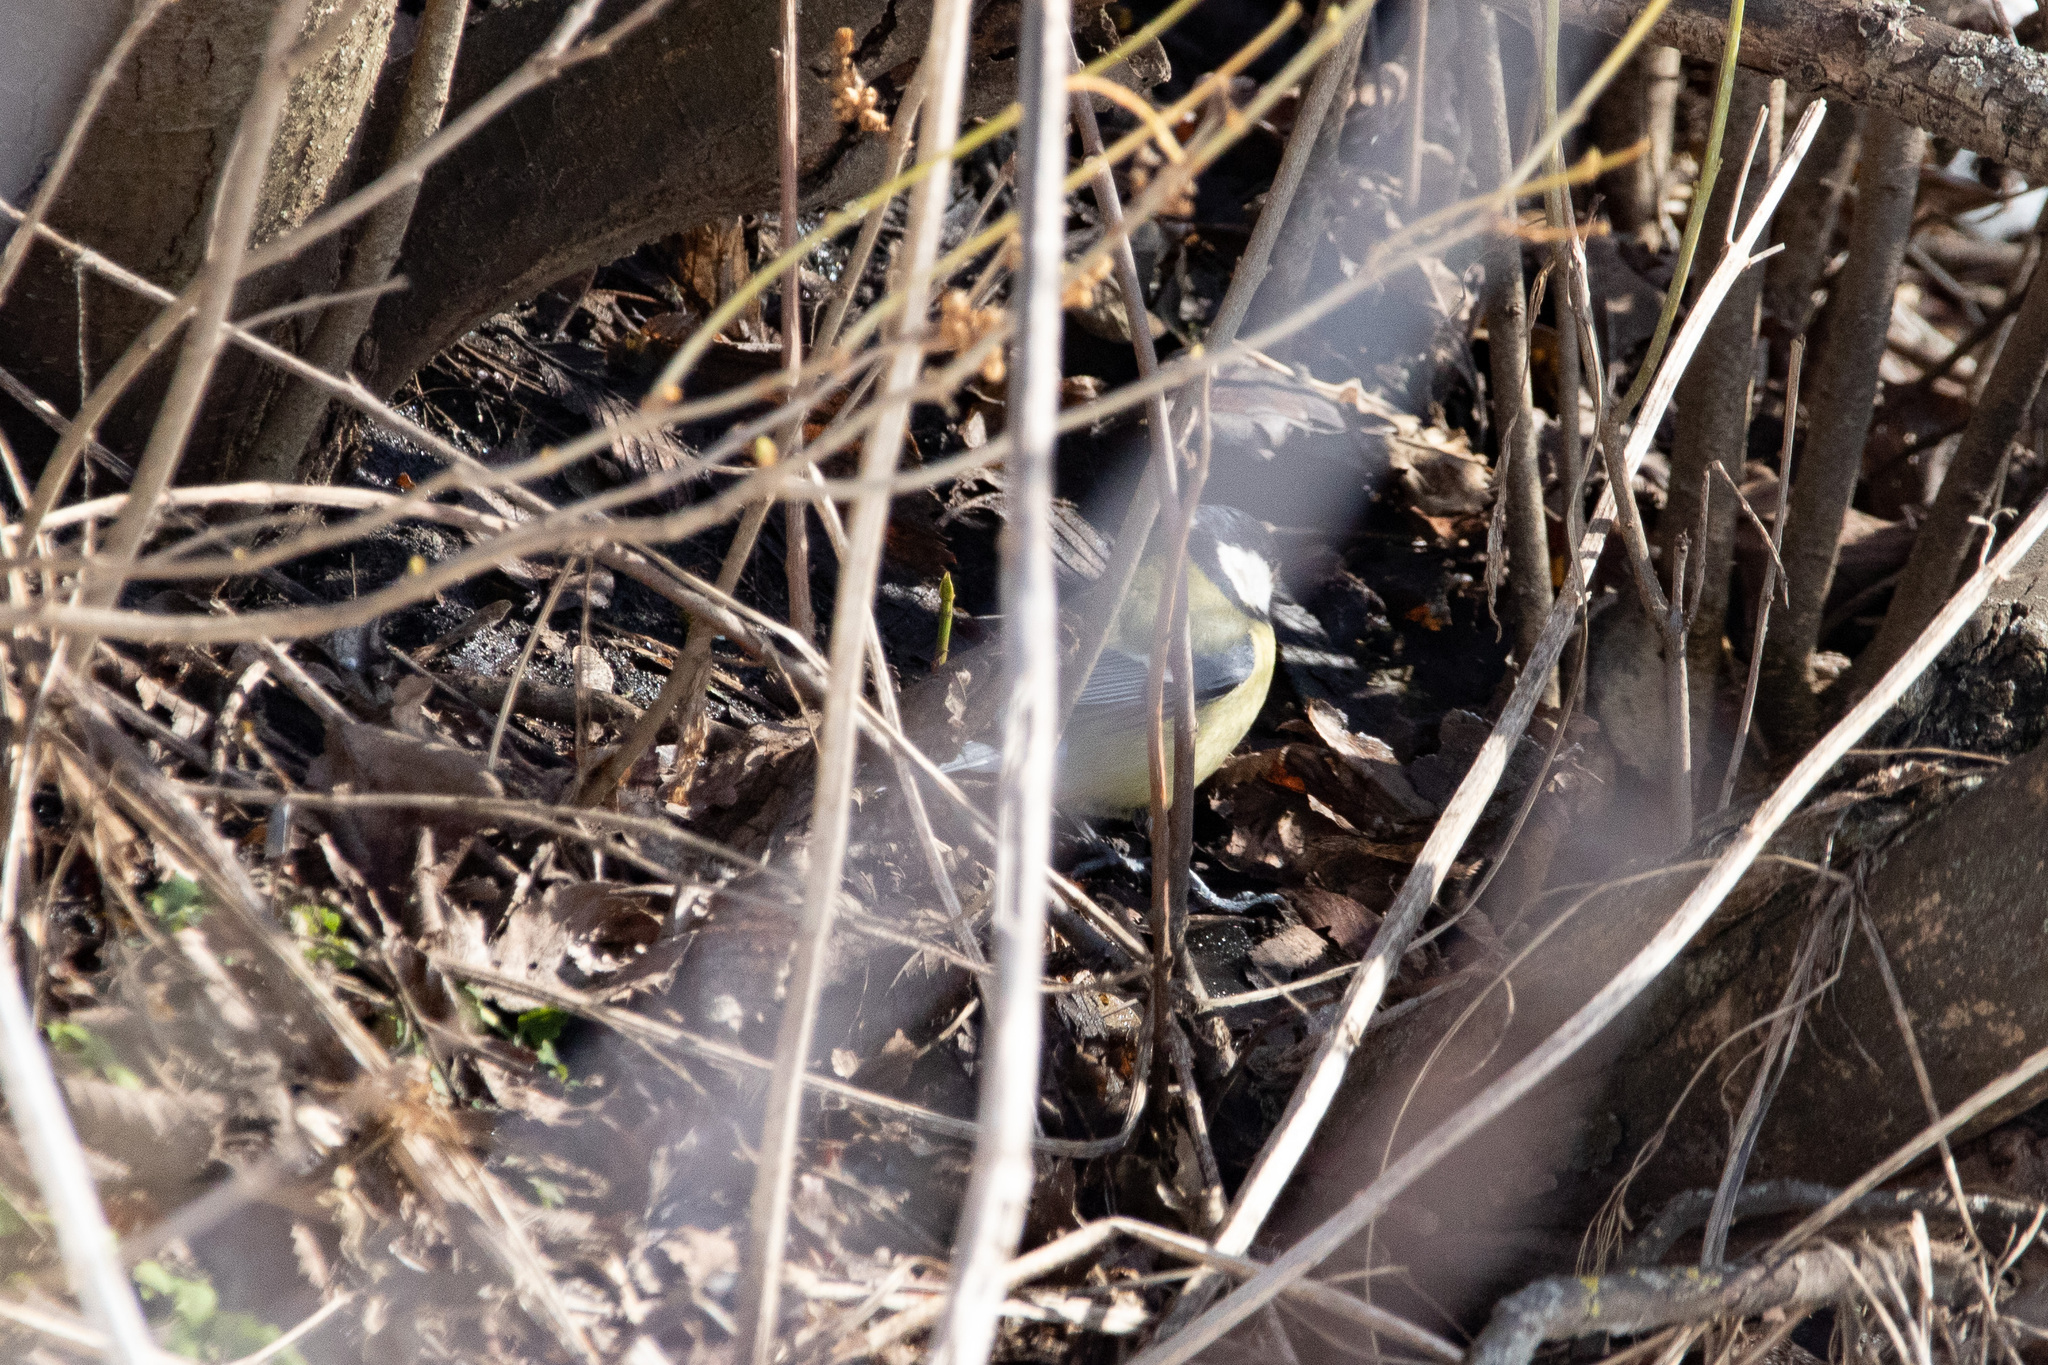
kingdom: Animalia
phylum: Chordata
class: Aves
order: Passeriformes
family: Paridae
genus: Parus
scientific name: Parus major
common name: Great tit
